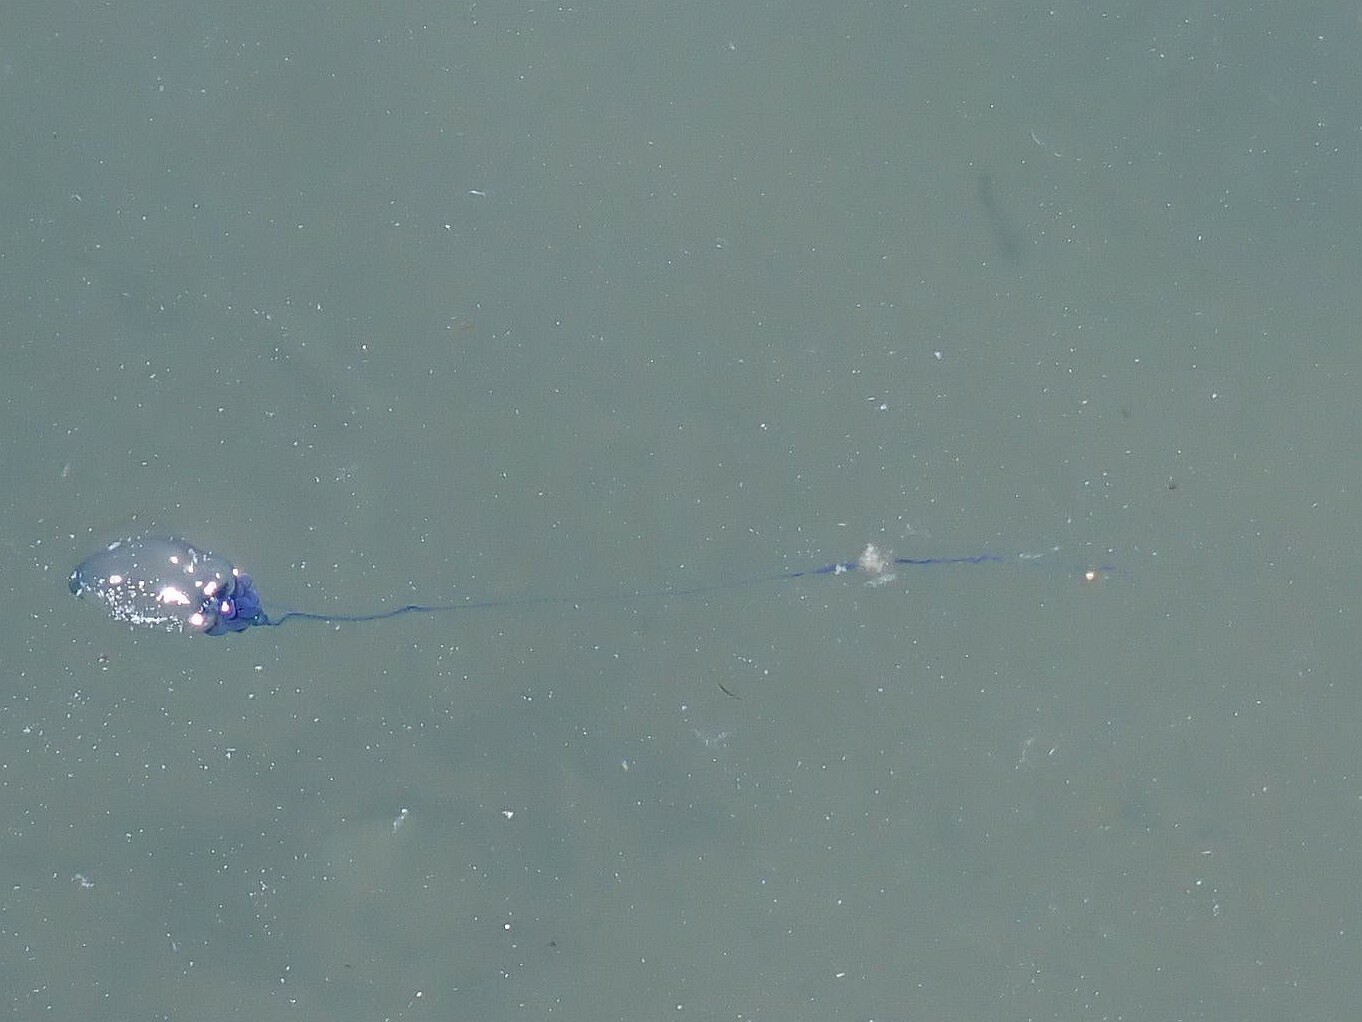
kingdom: Animalia
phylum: Cnidaria
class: Hydrozoa
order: Siphonophorae
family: Physaliidae
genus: Physalia
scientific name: Physalia physalis
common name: Portuguese man-of-war
